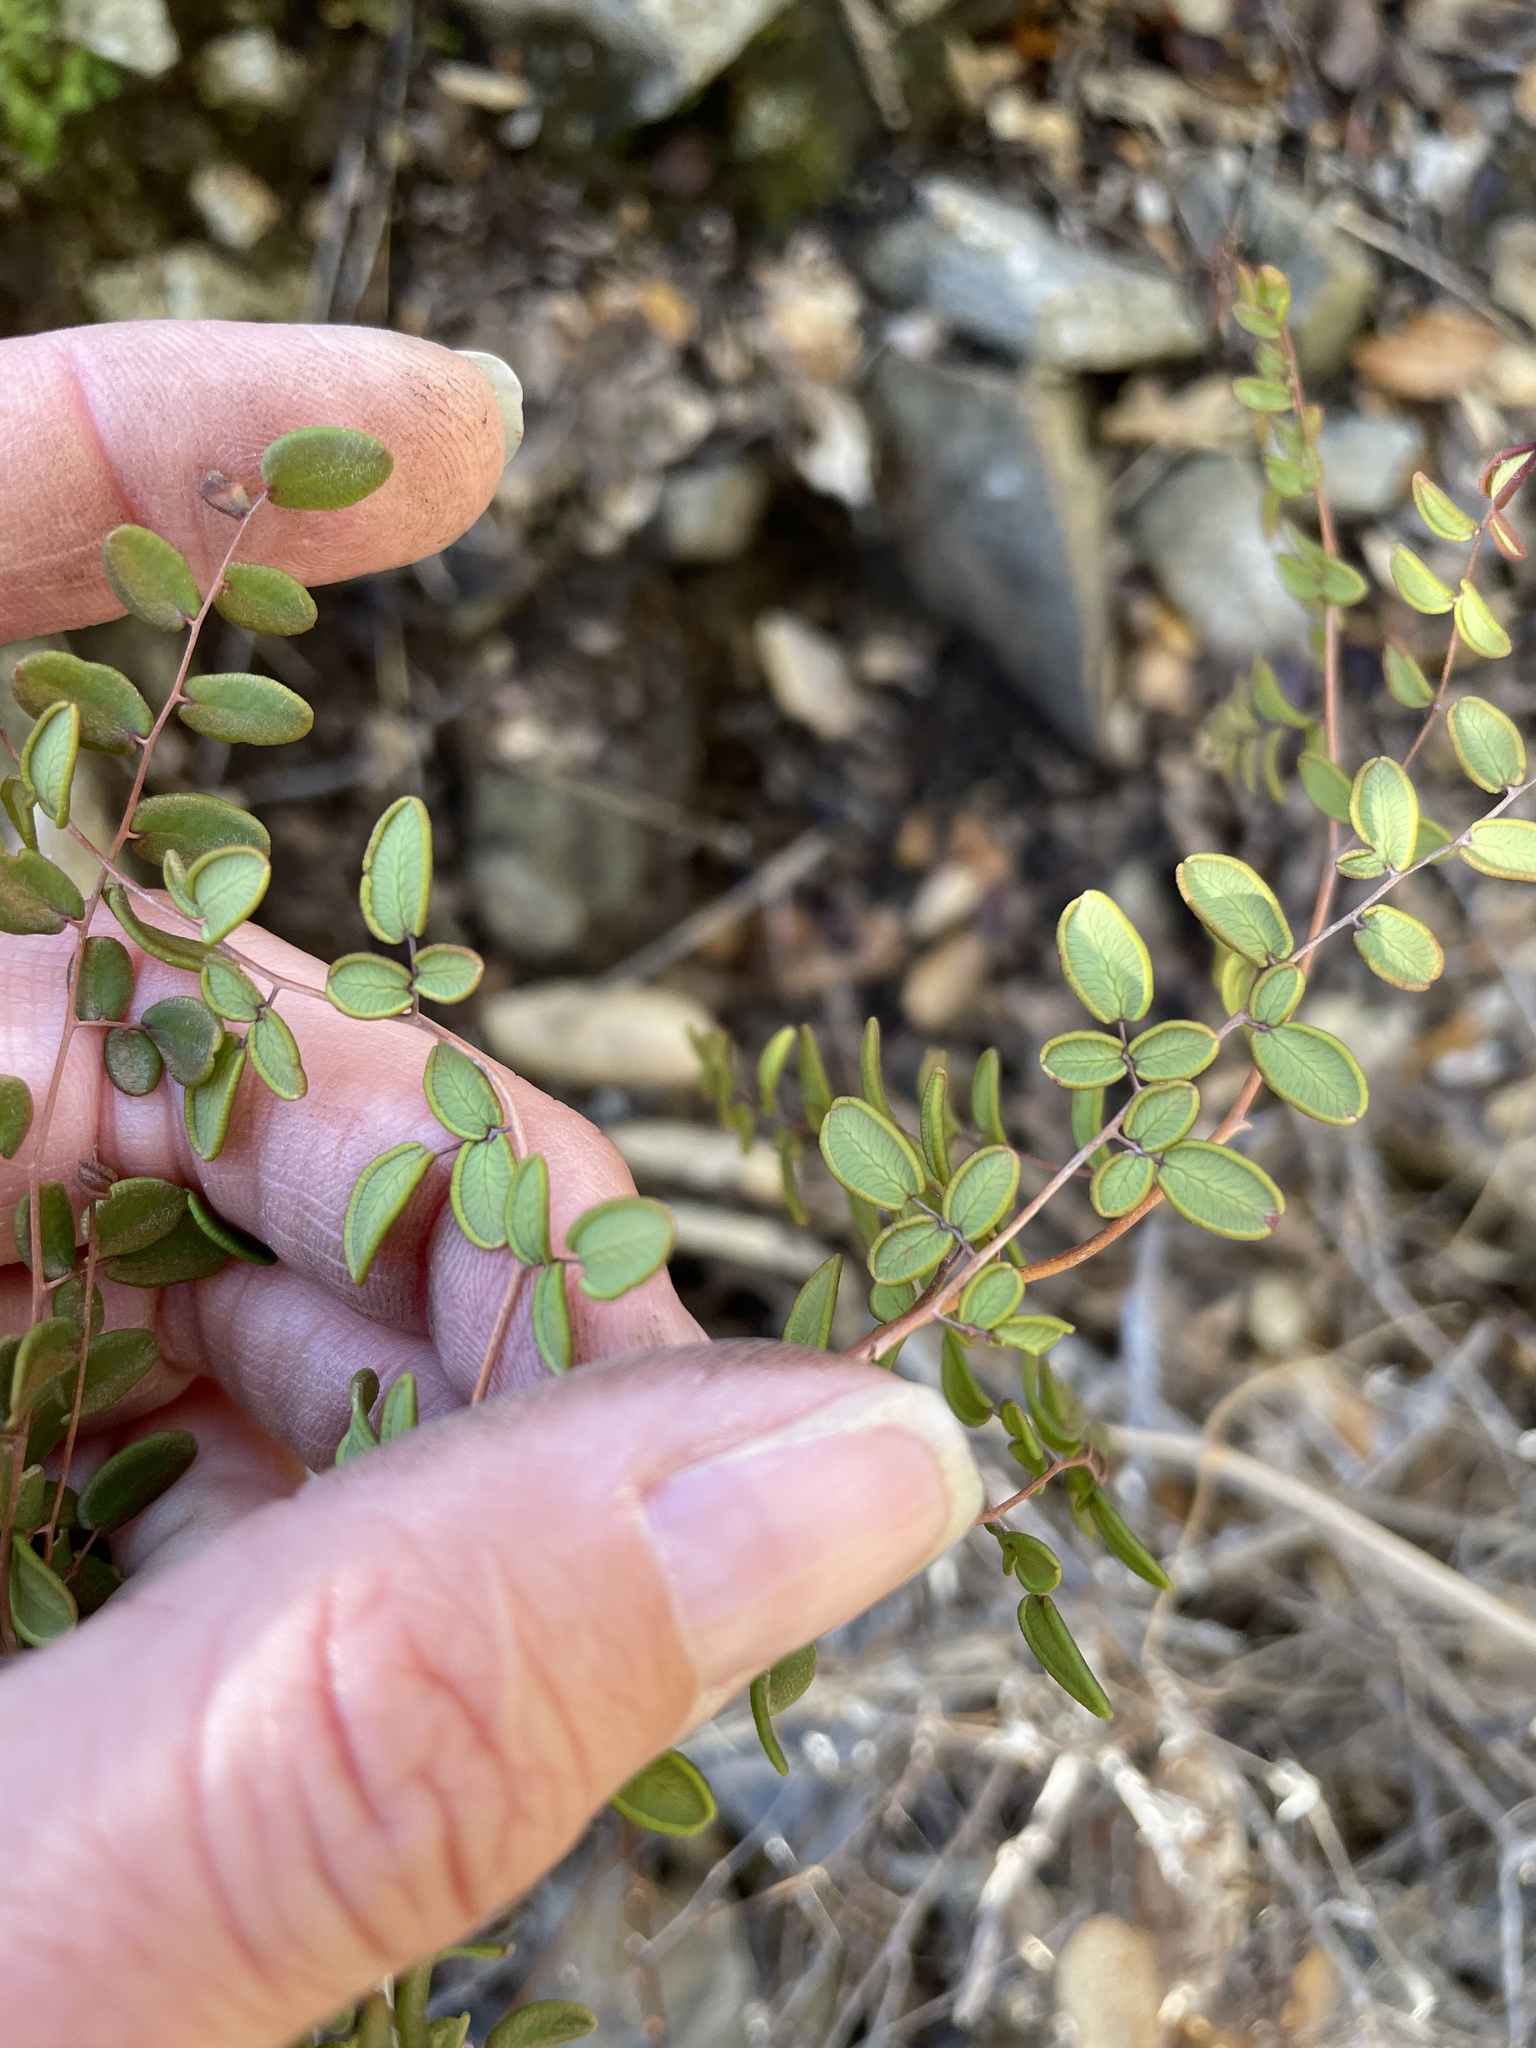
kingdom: Plantae
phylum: Tracheophyta
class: Polypodiopsida
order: Polypodiales
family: Pteridaceae
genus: Pellaea
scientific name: Pellaea andromedifolia
